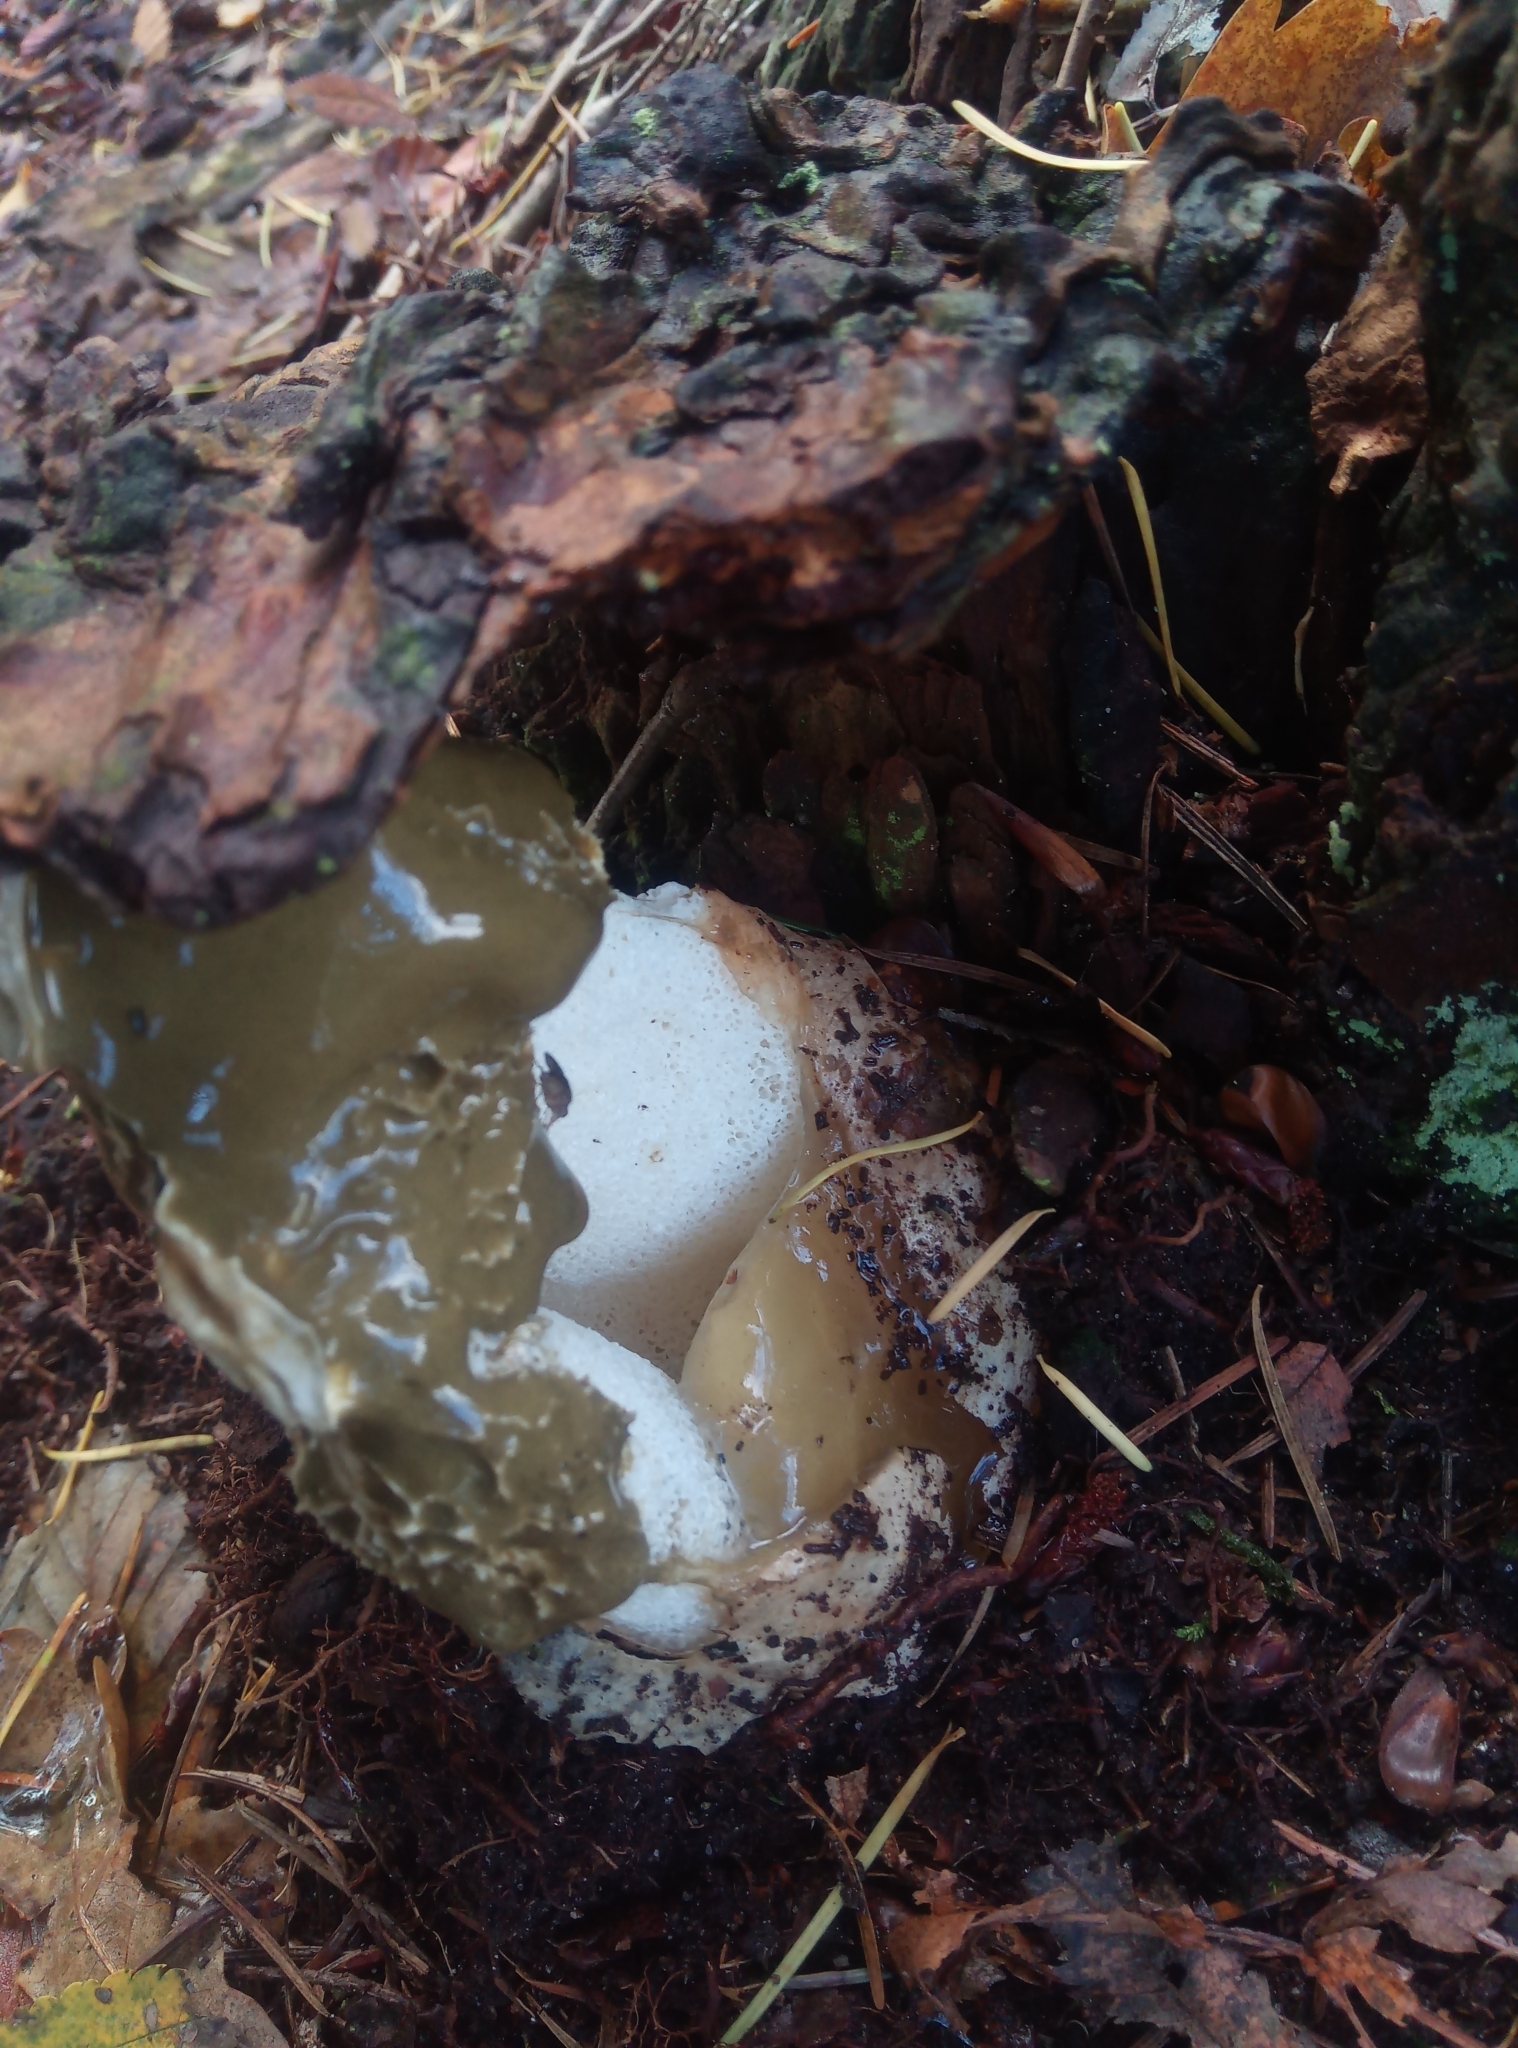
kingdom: Fungi
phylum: Basidiomycota
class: Agaricomycetes
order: Phallales
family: Phallaceae
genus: Phallus
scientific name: Phallus impudicus
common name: Common stinkhorn
